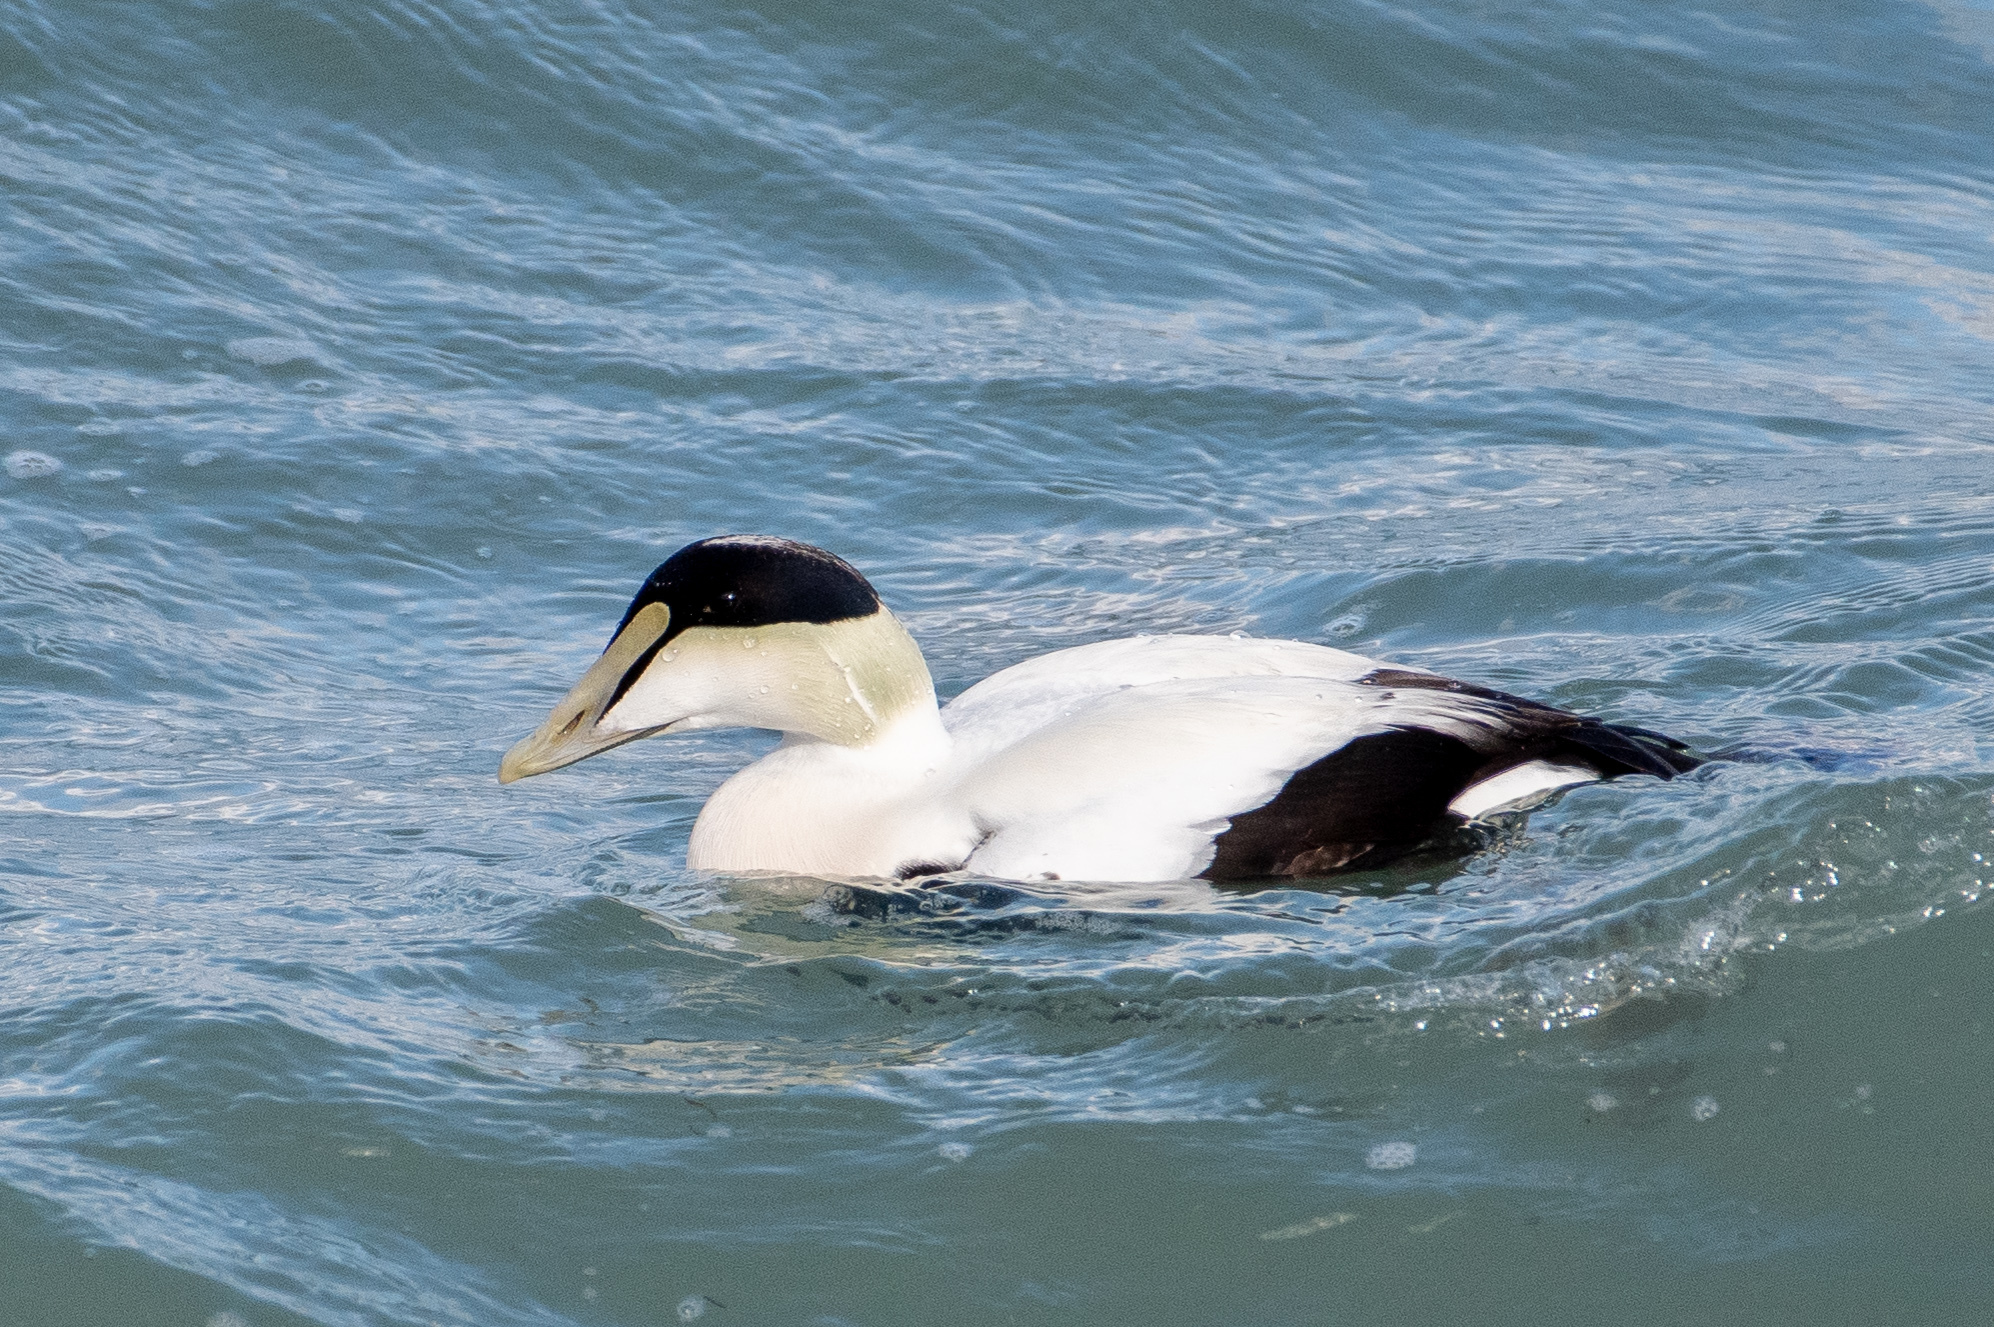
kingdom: Animalia
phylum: Chordata
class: Aves
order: Anseriformes
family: Anatidae
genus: Somateria
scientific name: Somateria mollissima
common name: Common eider
